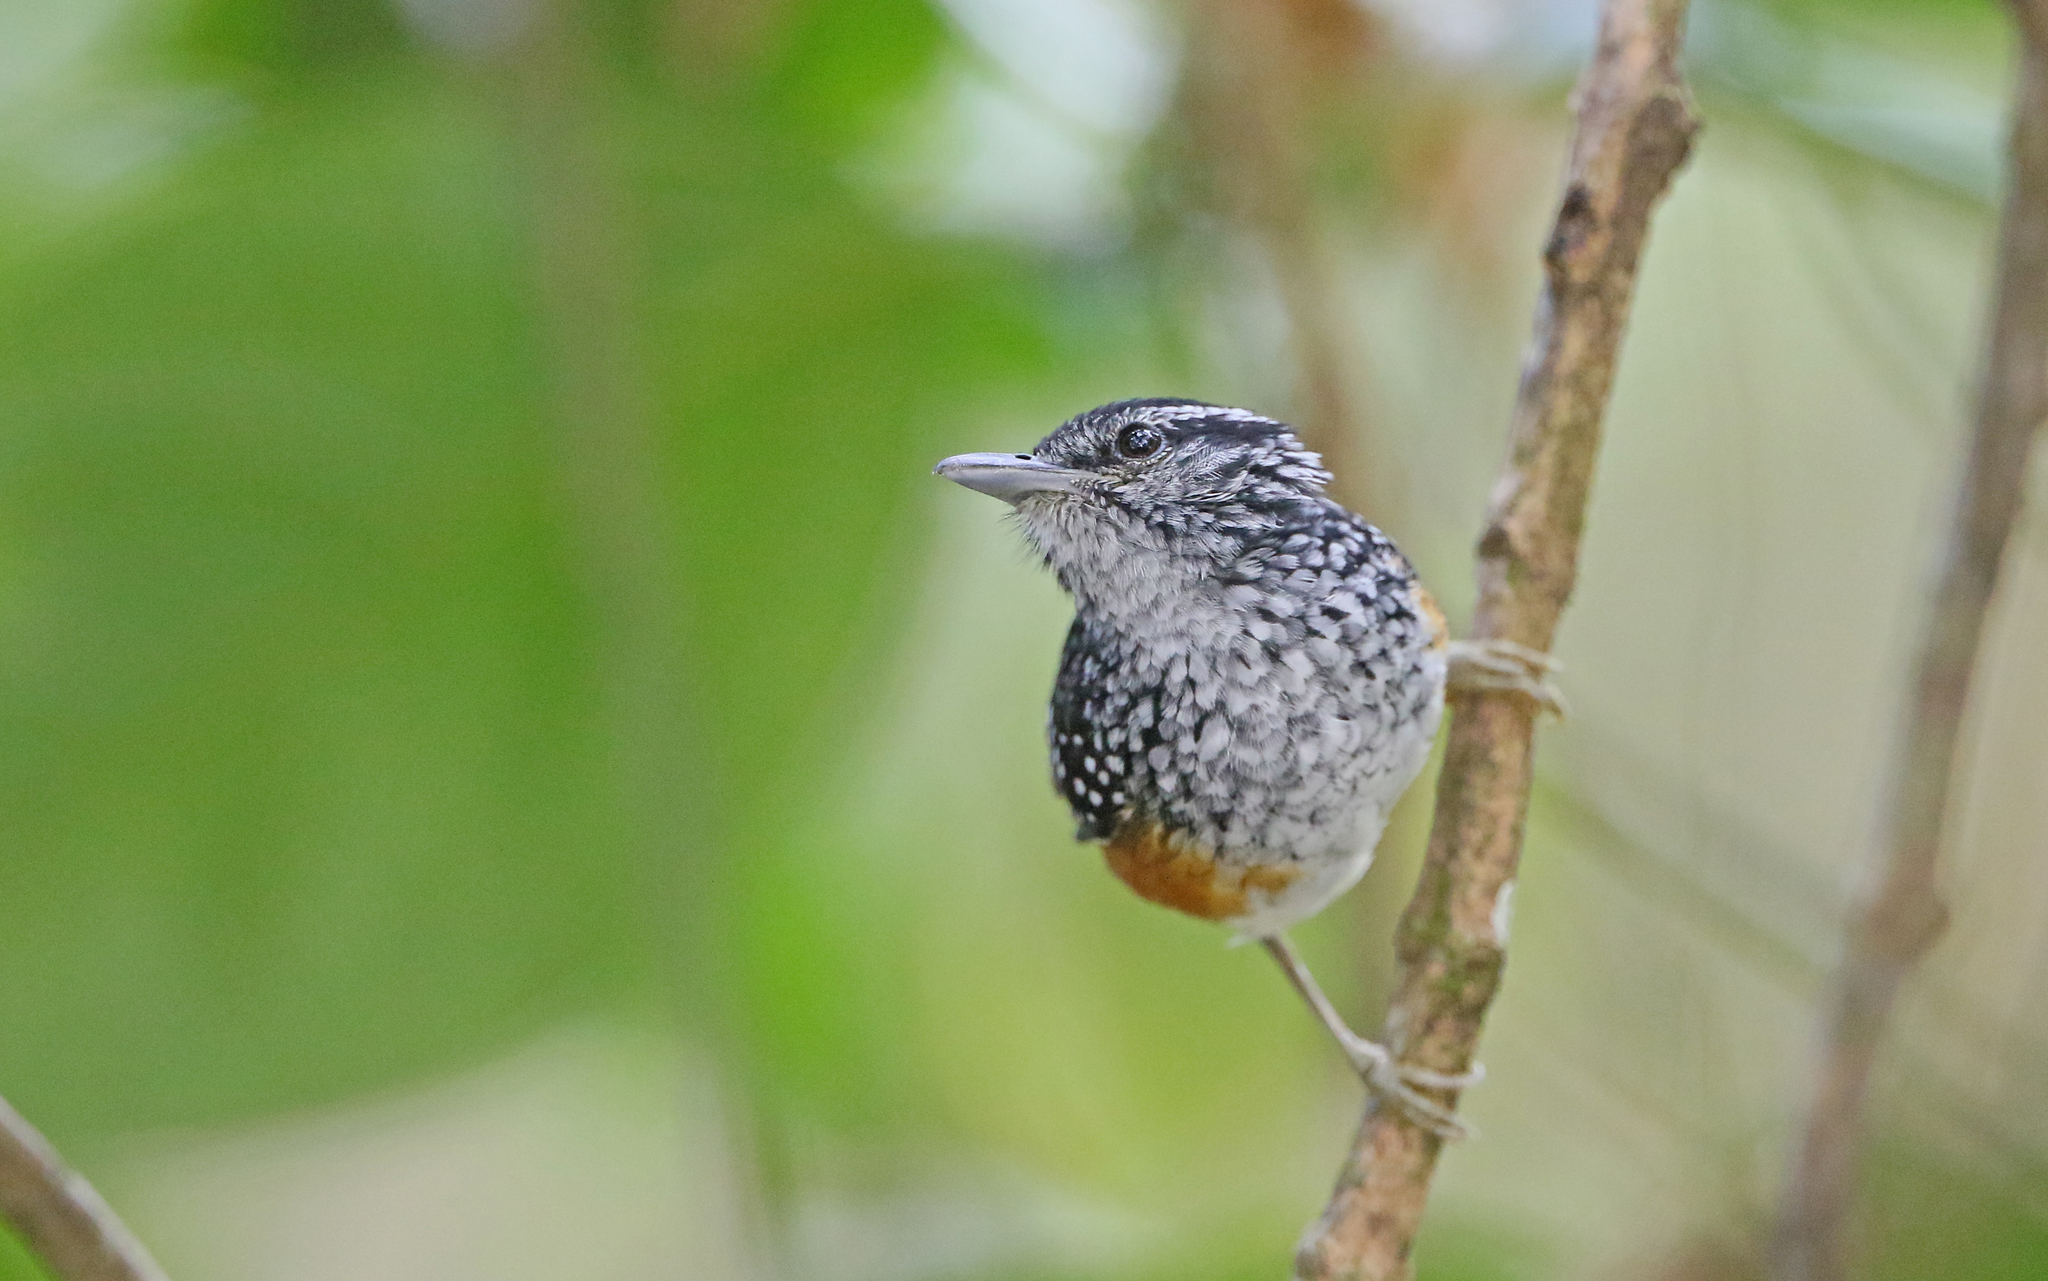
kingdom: Animalia
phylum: Chordata
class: Aves
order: Passeriformes
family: Thamnophilidae
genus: Hypocnemis
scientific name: Hypocnemis peruviana
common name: Peruvian warbling-antbird
